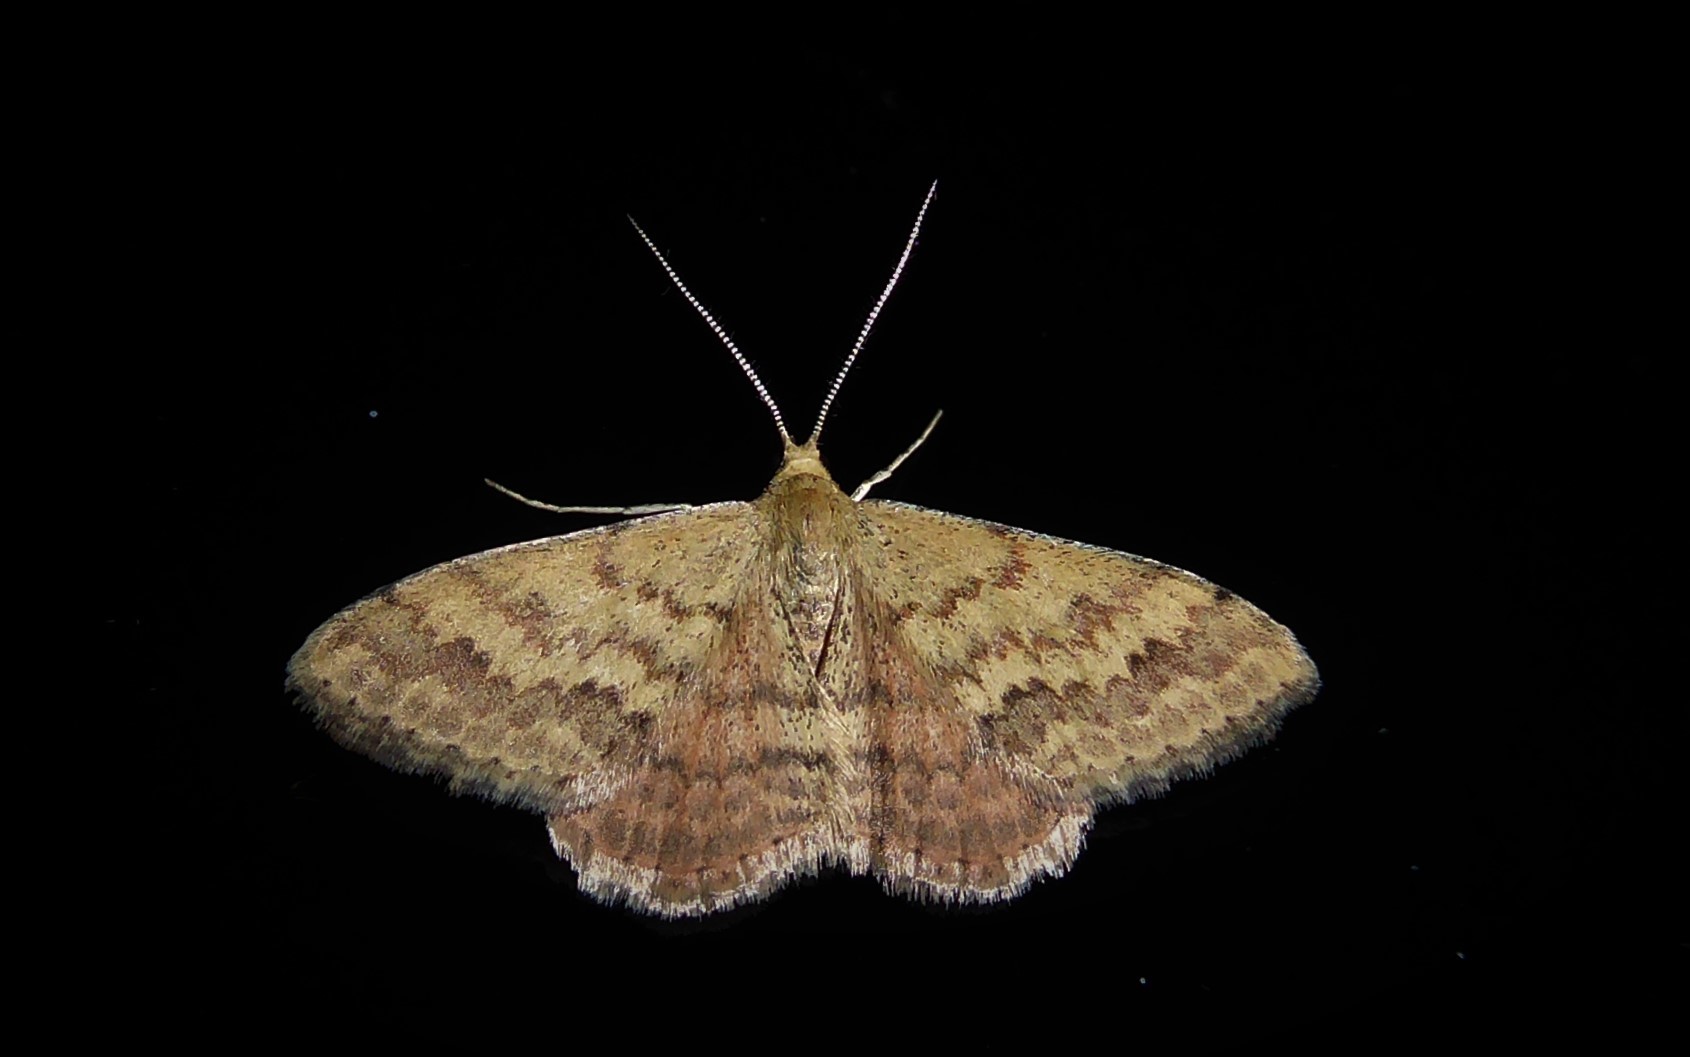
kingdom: Animalia
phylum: Arthropoda
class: Insecta
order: Lepidoptera
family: Geometridae
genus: Scopula
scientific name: Scopula rubraria
